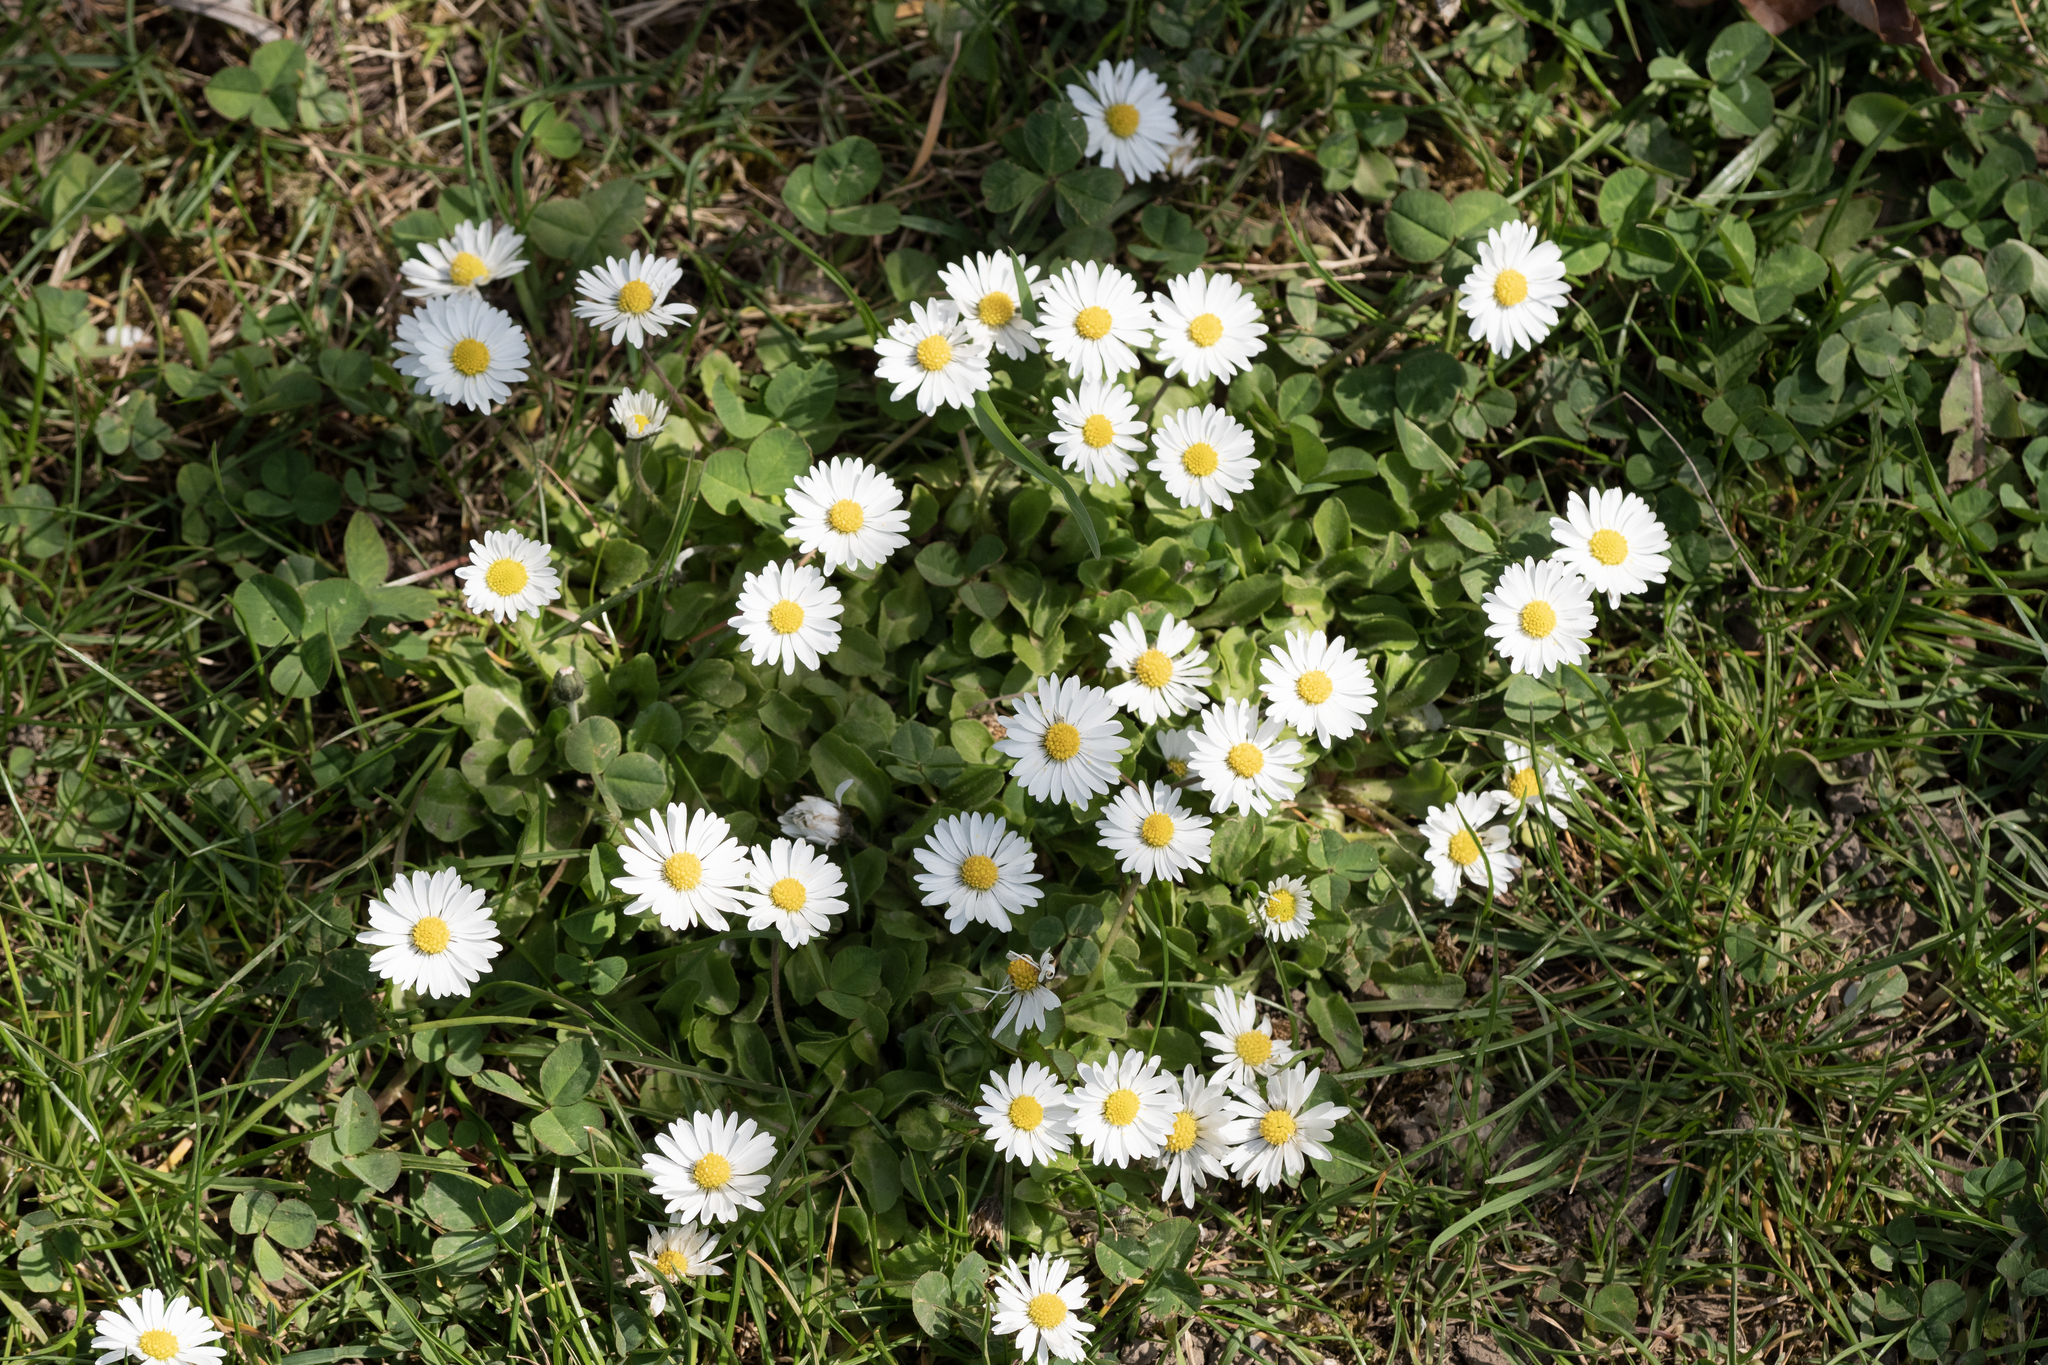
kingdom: Plantae
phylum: Tracheophyta
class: Magnoliopsida
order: Asterales
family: Asteraceae
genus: Bellis
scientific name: Bellis perennis
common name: Lawndaisy
